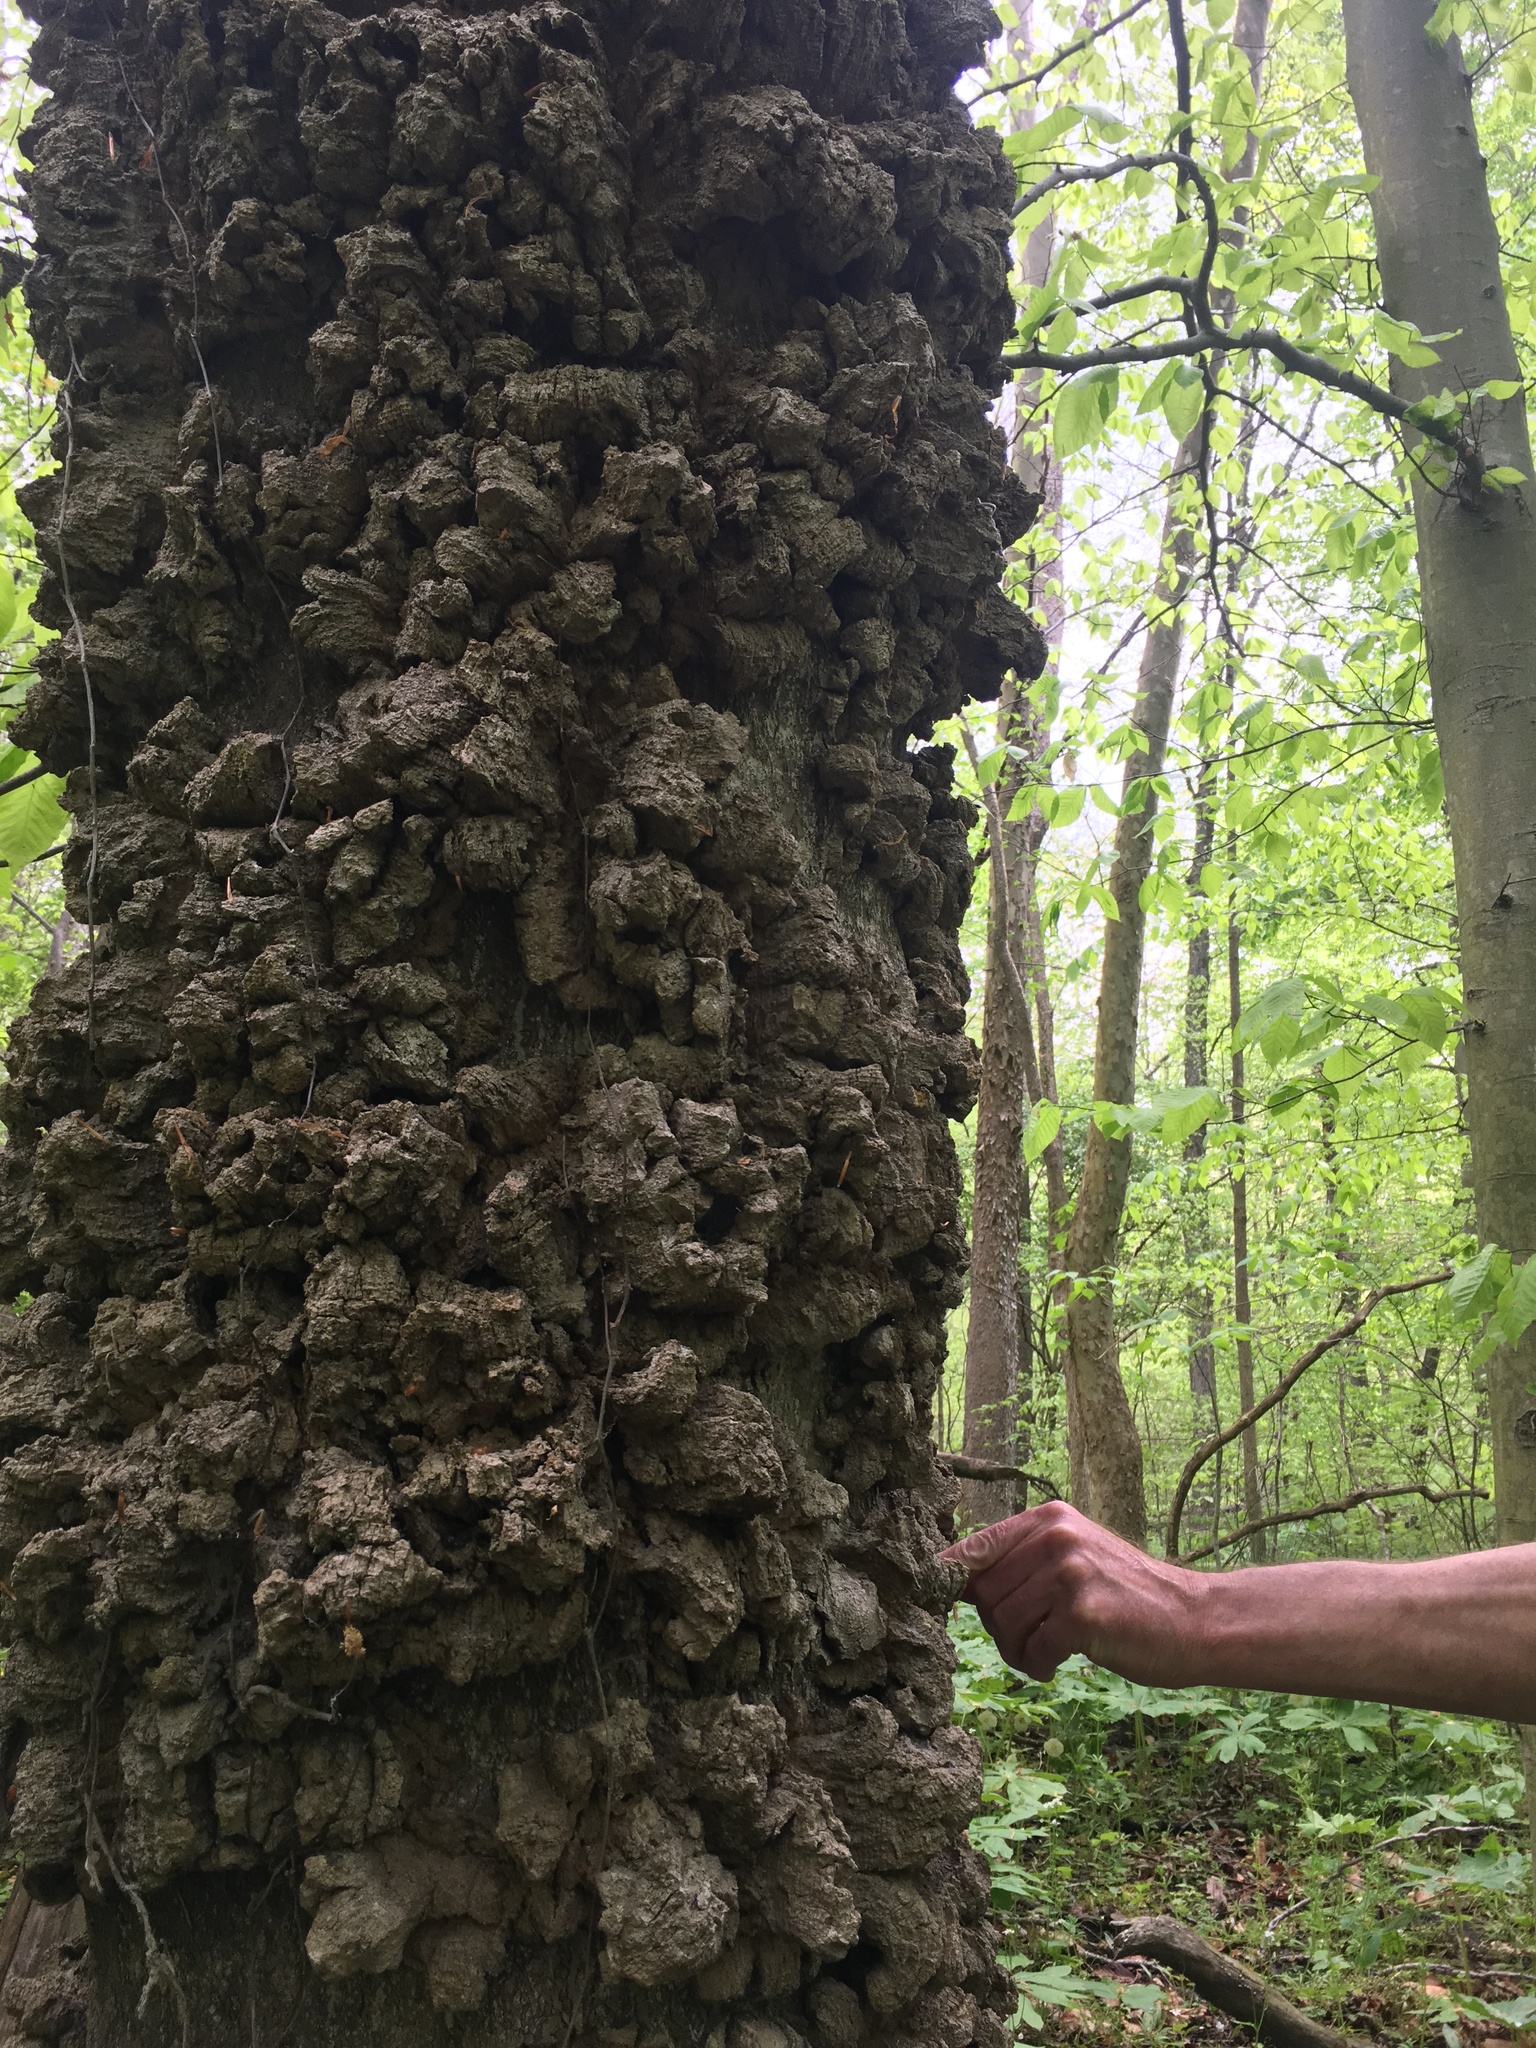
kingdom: Plantae
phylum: Tracheophyta
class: Magnoliopsida
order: Rosales
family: Cannabaceae
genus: Celtis
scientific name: Celtis occidentalis
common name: Common hackberry
